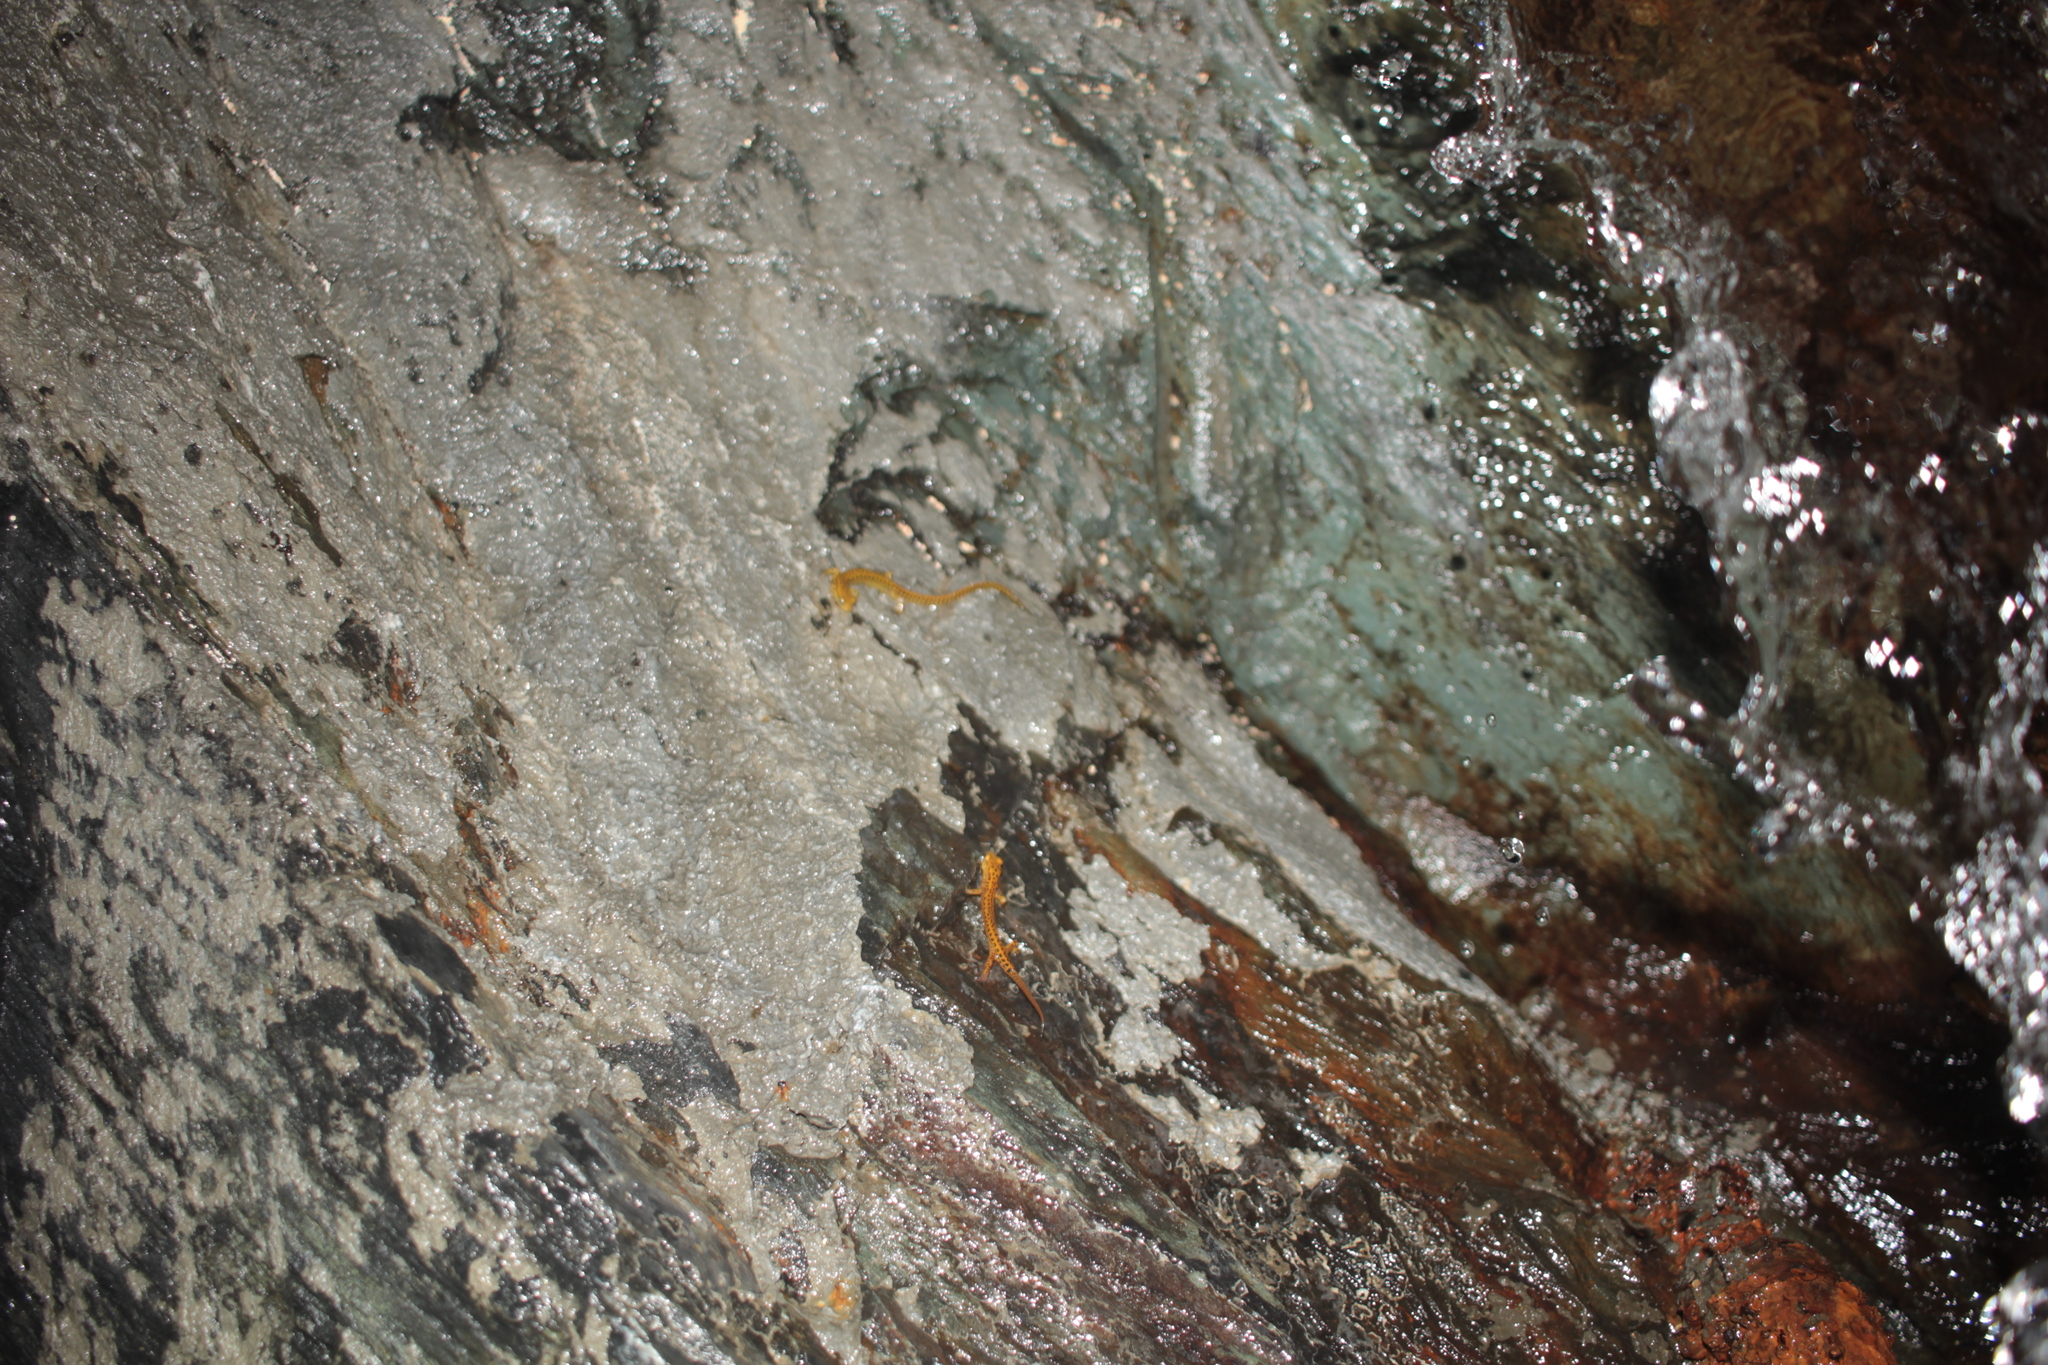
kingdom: Animalia
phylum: Chordata
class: Amphibia
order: Caudata
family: Plethodontidae
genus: Eurycea
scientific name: Eurycea longicauda
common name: Long-tailed salamander
